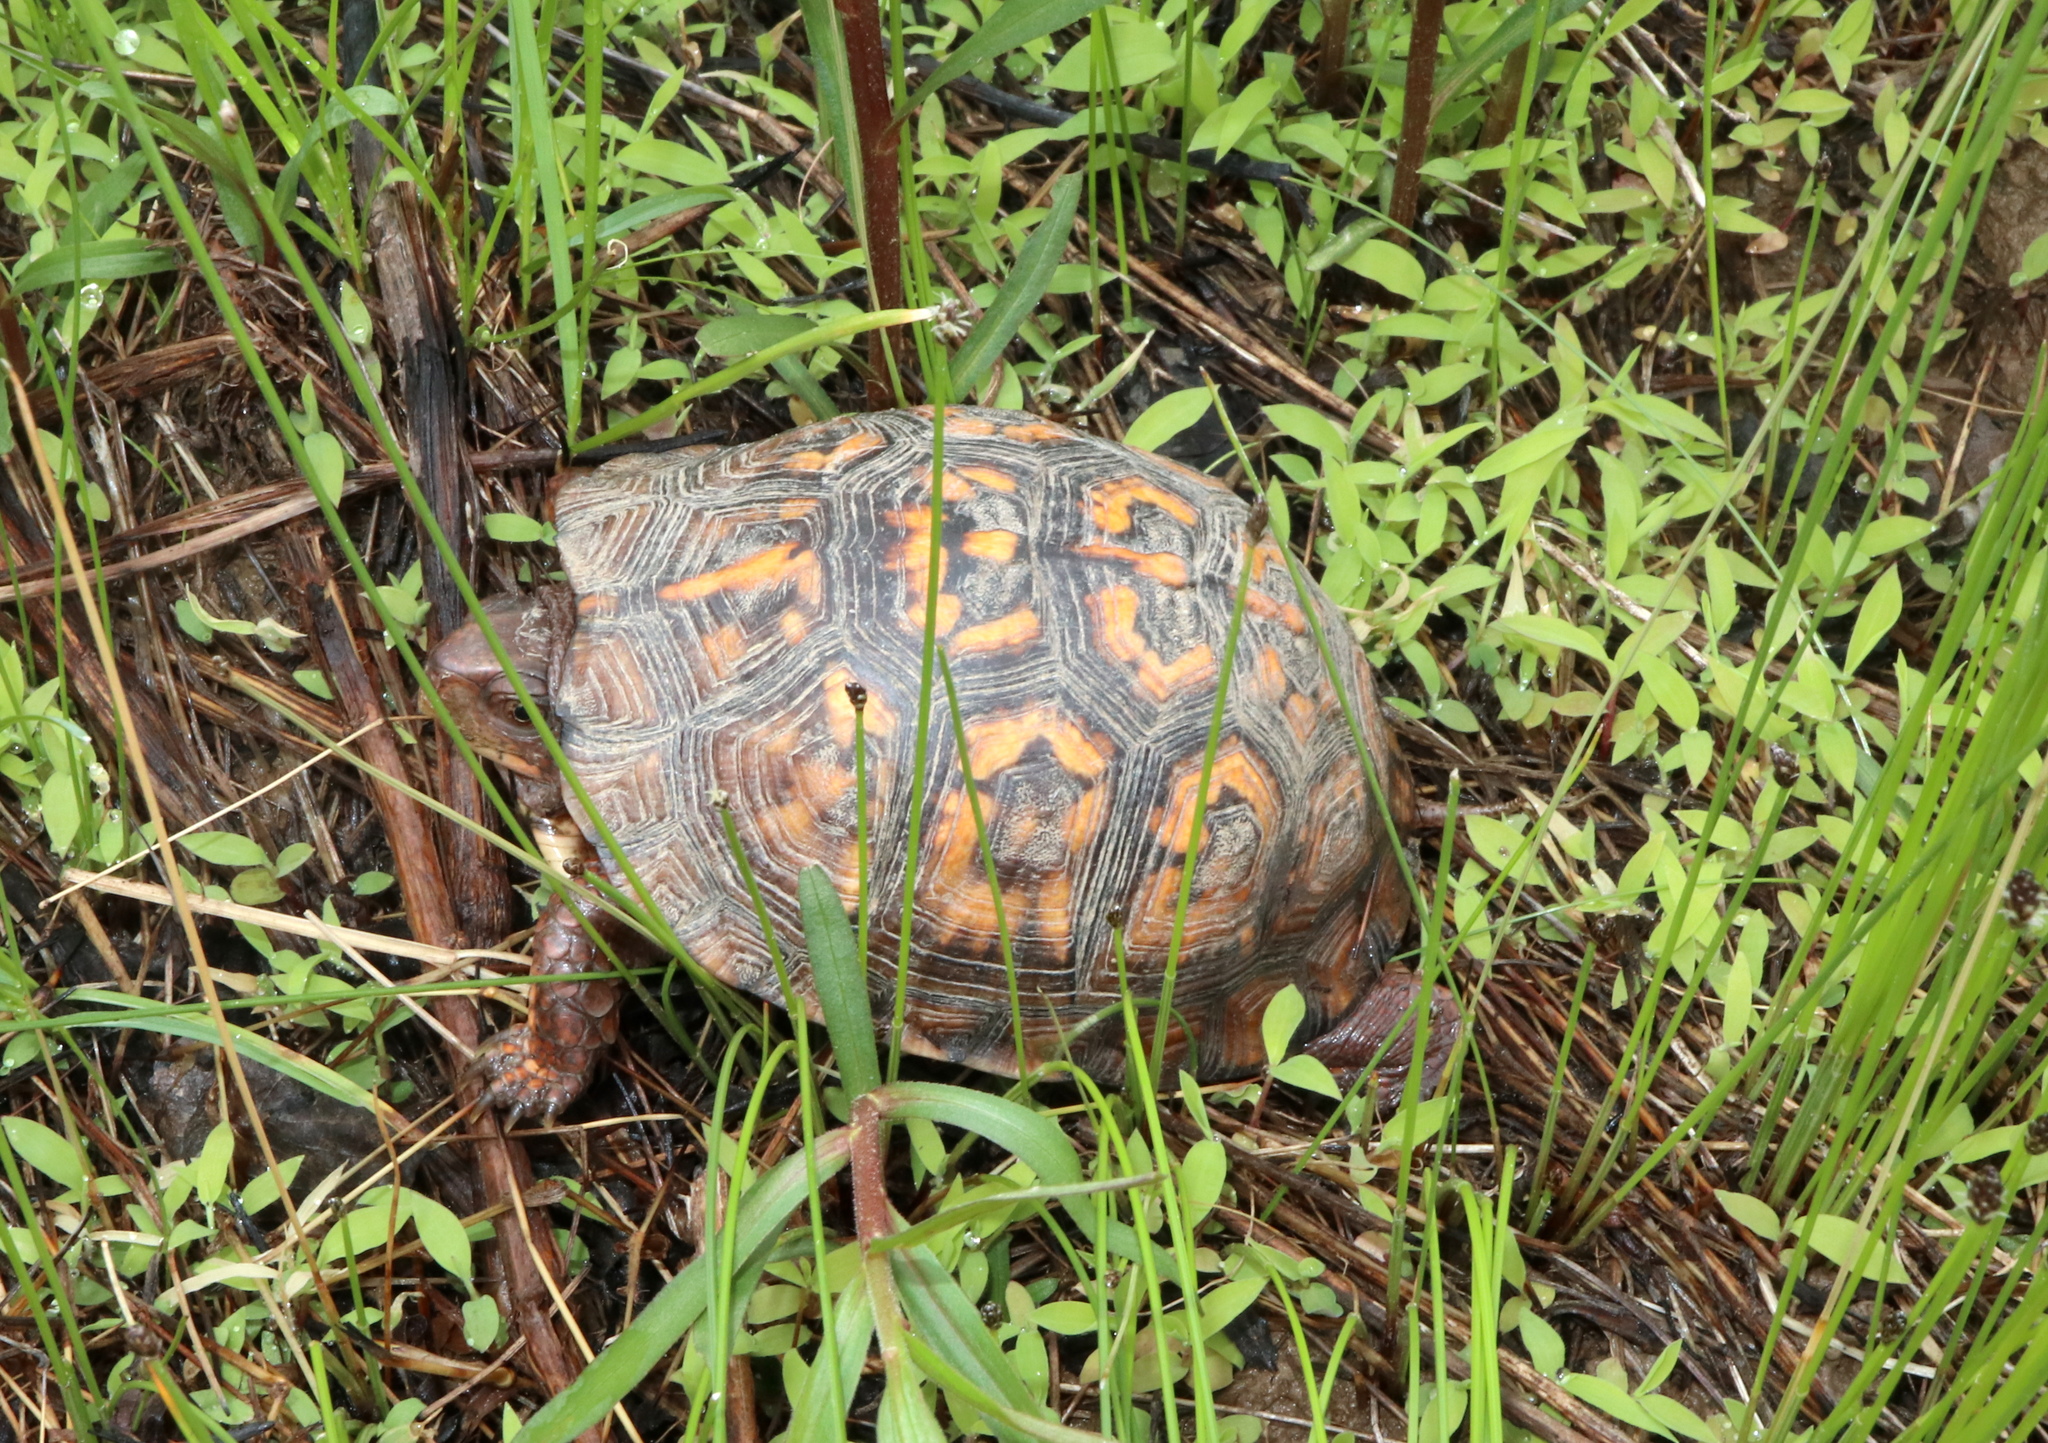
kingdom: Animalia
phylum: Chordata
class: Testudines
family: Emydidae
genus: Terrapene
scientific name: Terrapene carolina
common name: Common box turtle
